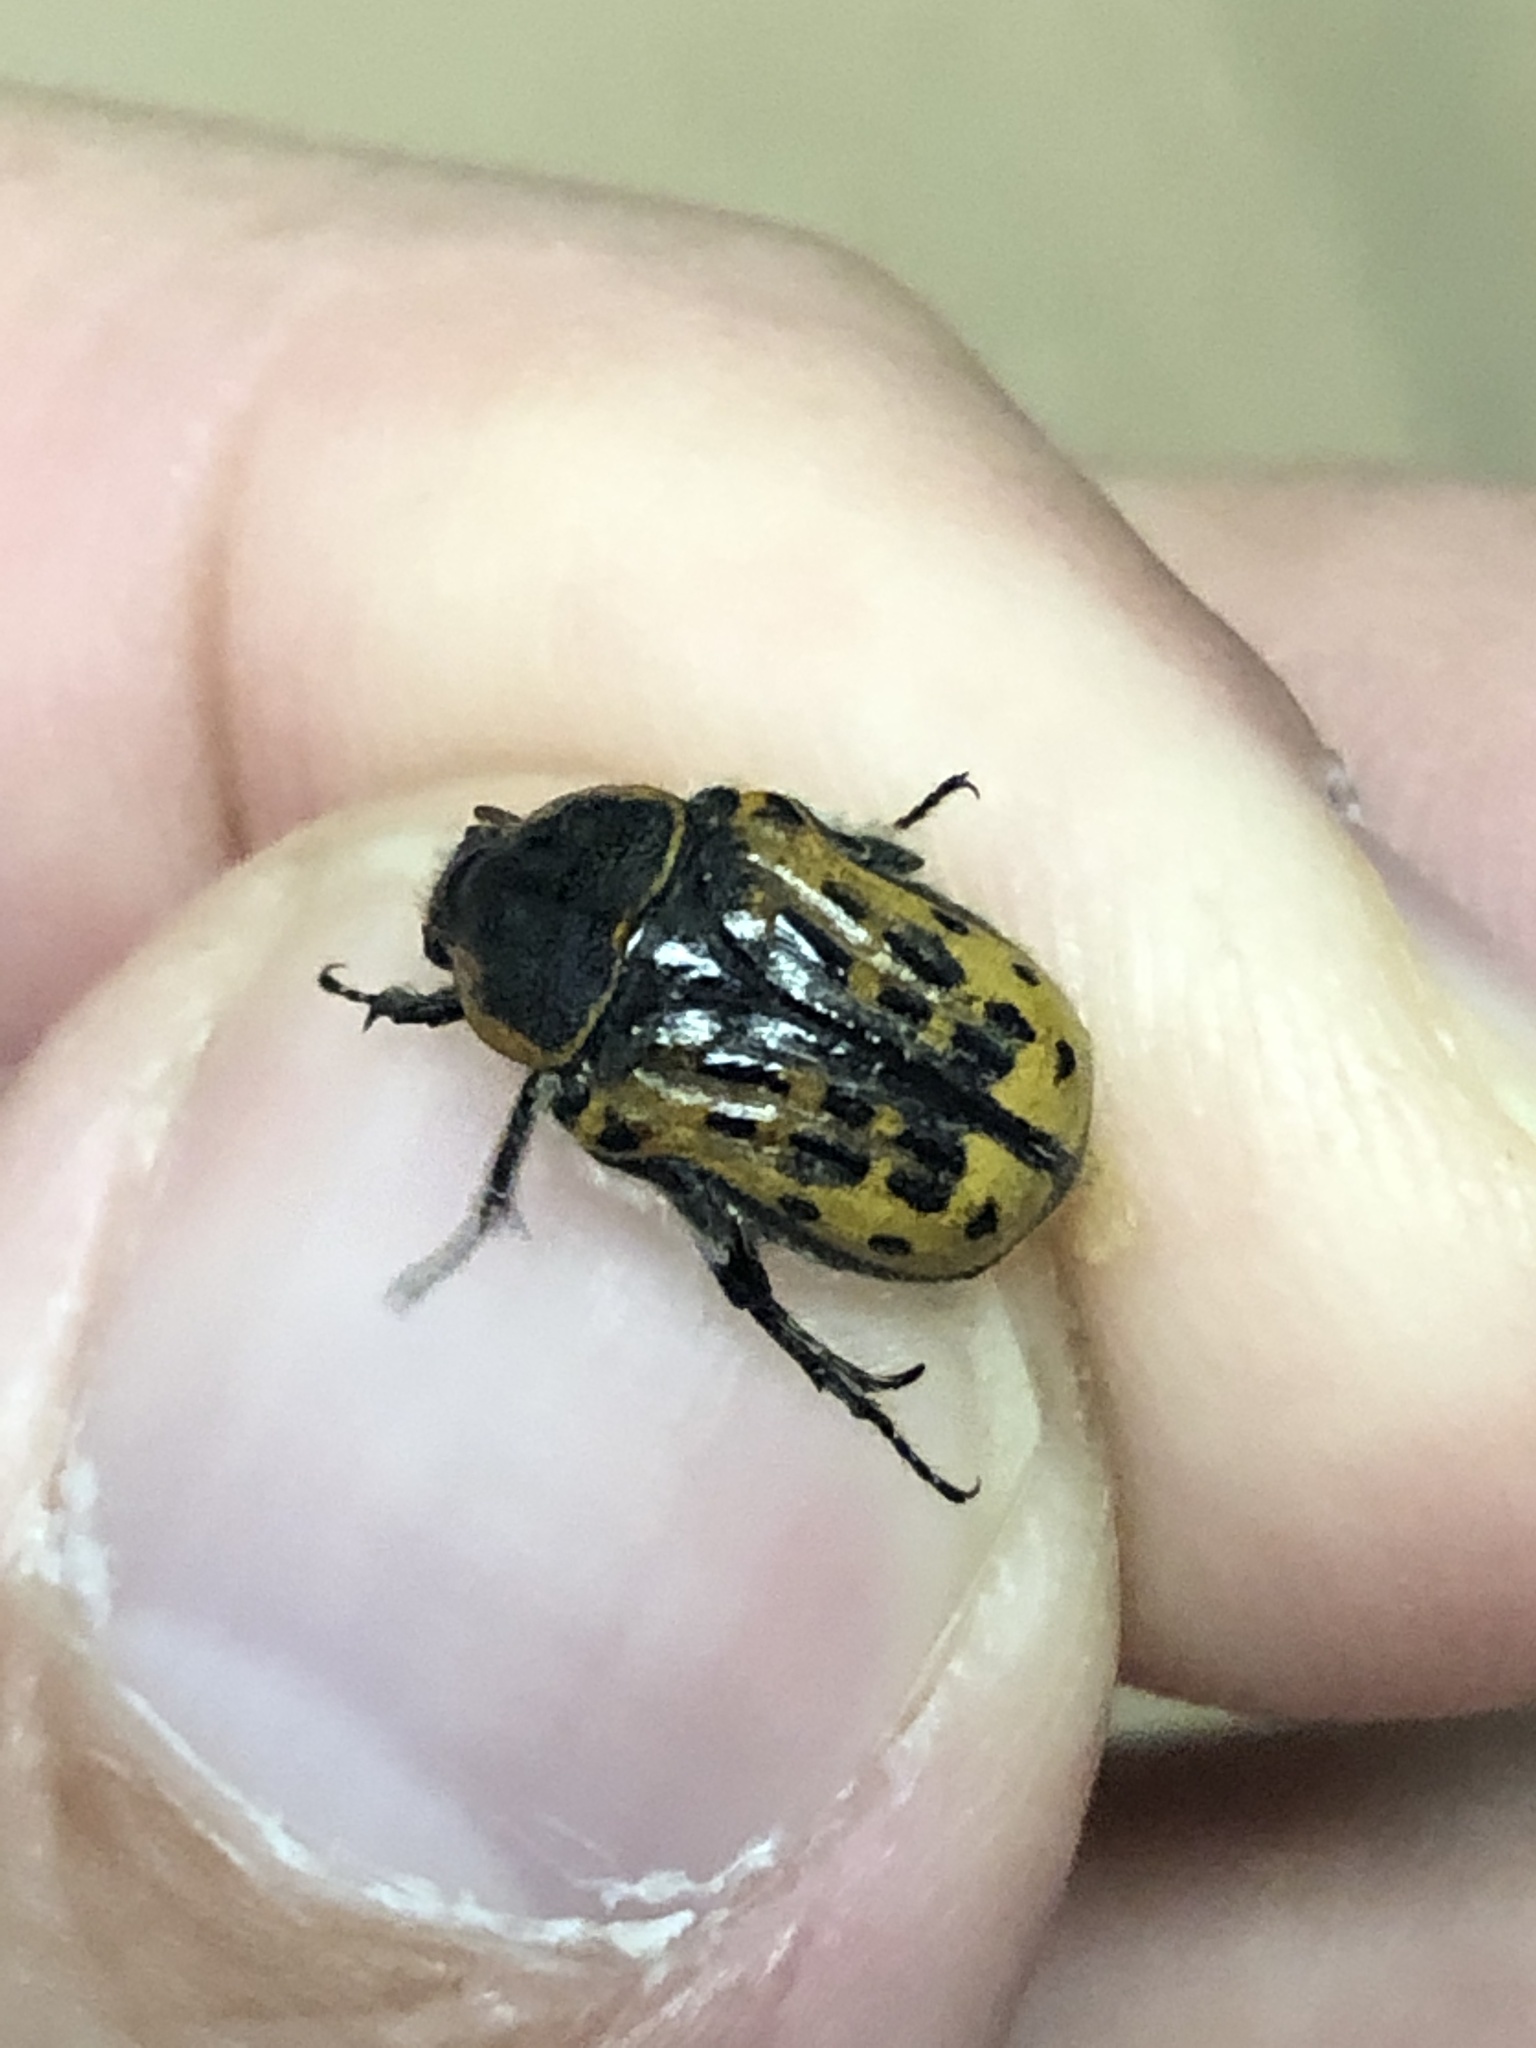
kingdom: Animalia
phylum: Arthropoda
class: Insecta
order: Coleoptera
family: Scarabaeidae
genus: Euphoria
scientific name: Euphoria kernii
